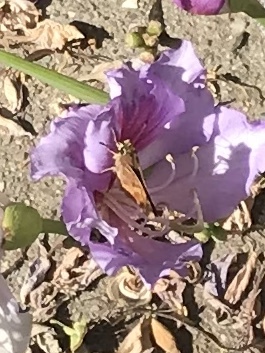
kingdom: Animalia
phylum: Arthropoda
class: Insecta
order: Lepidoptera
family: Hesperiidae
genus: Lon
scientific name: Lon melane
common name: Umber skipper
